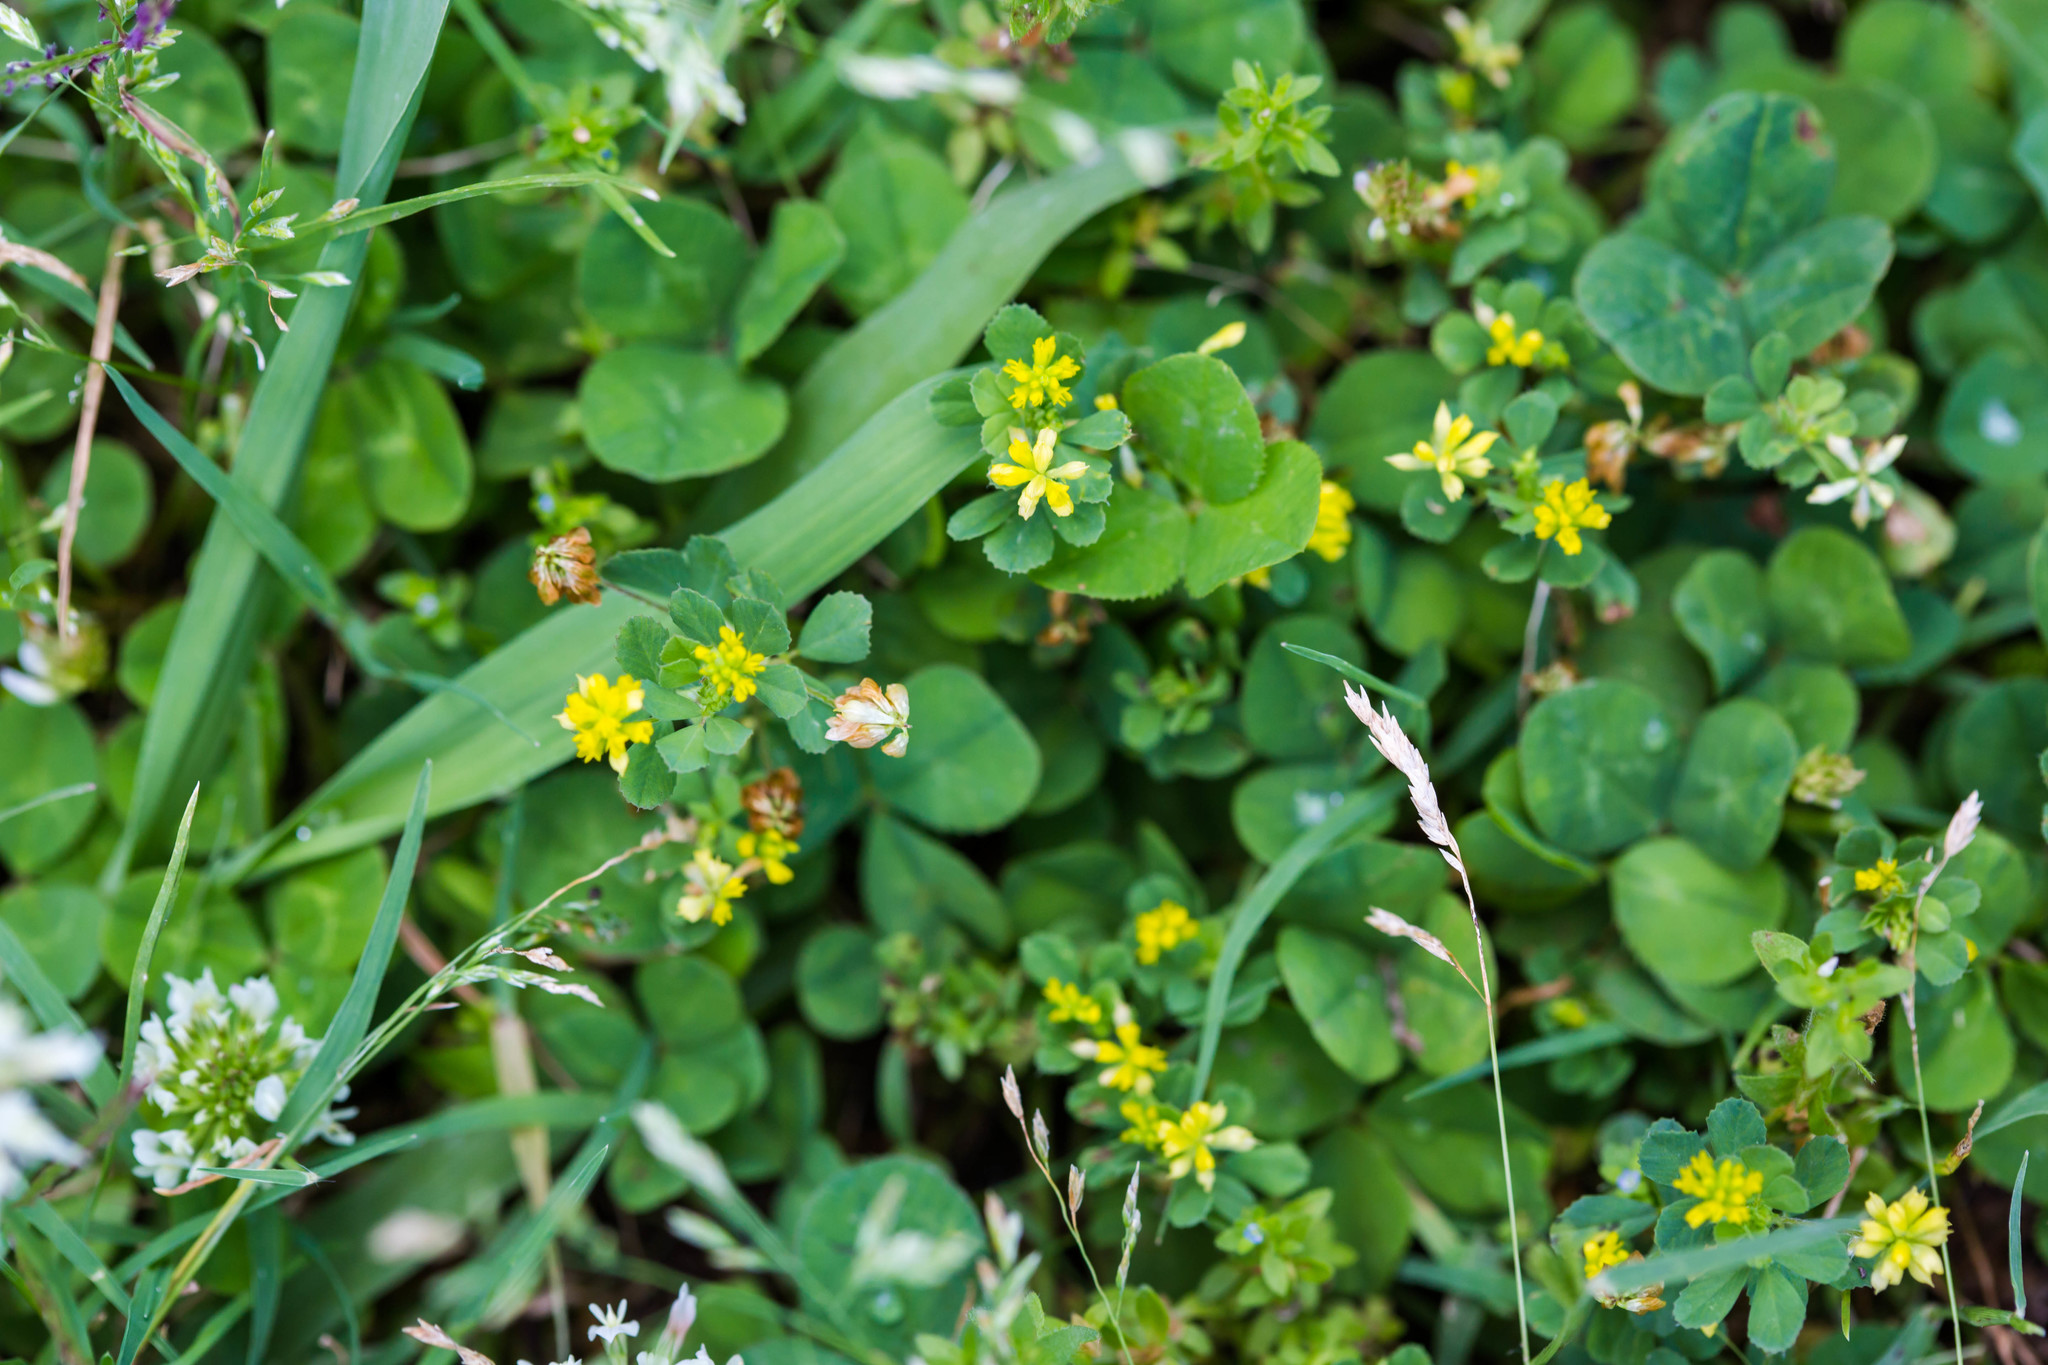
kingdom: Plantae
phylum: Tracheophyta
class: Magnoliopsida
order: Fabales
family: Fabaceae
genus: Trifolium
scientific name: Trifolium dubium
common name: Suckling clover
